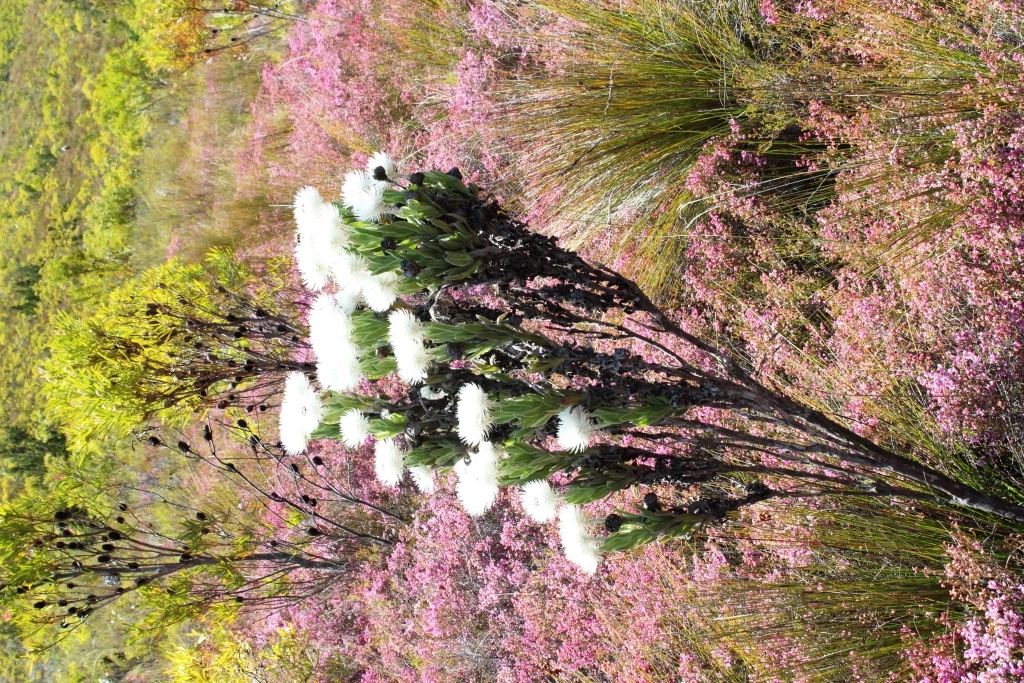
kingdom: Plantae
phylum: Tracheophyta
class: Magnoliopsida
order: Asterales
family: Asteraceae
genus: Syncarpha
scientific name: Syncarpha vestita
